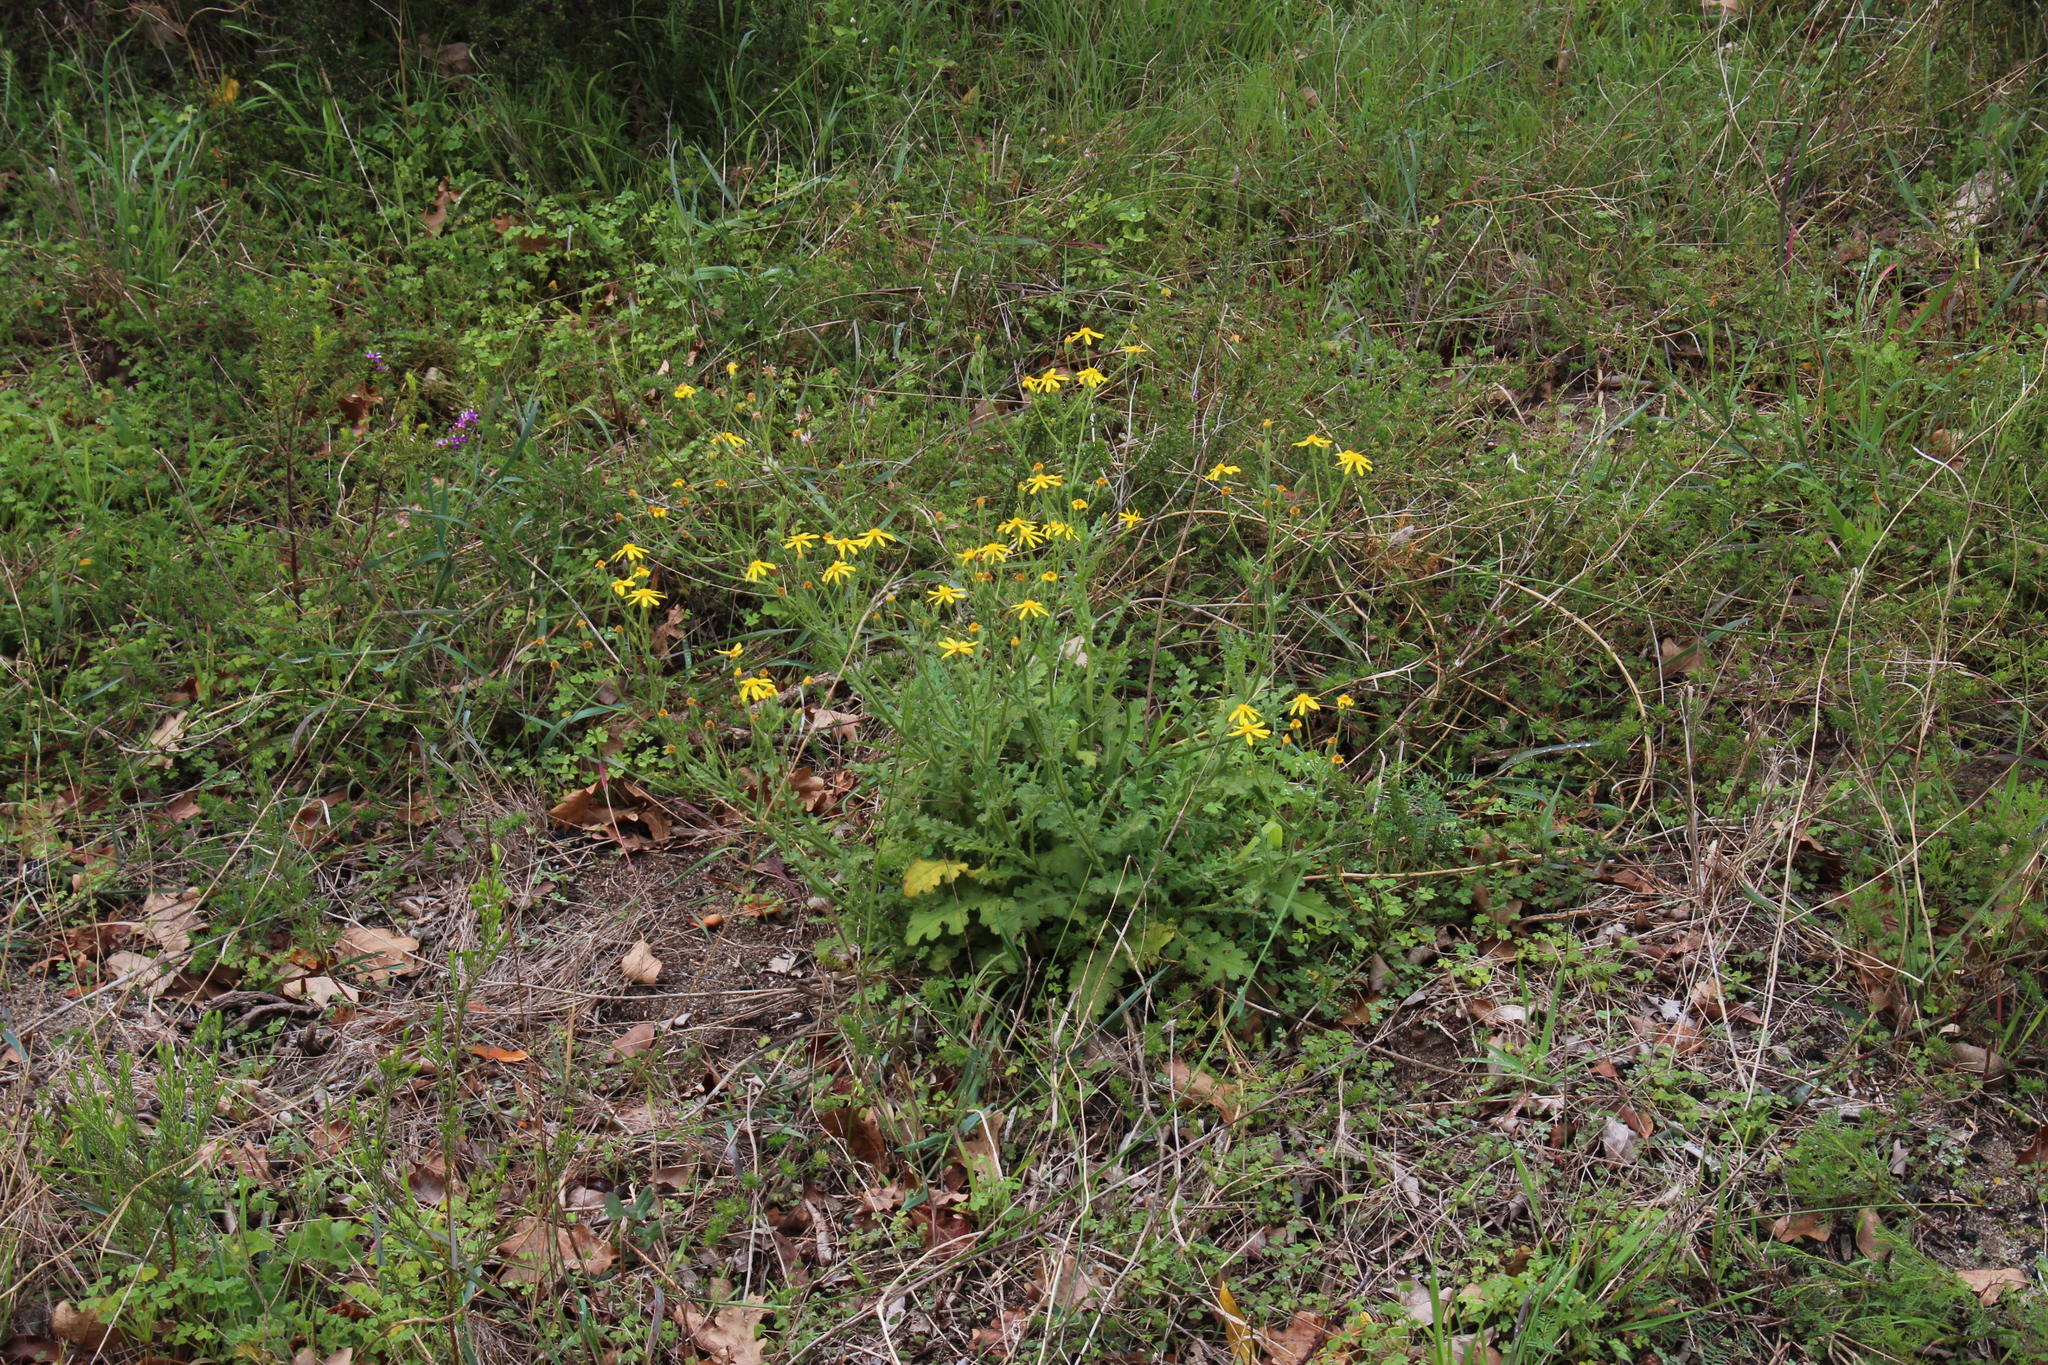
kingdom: Plantae
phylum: Tracheophyta
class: Magnoliopsida
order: Asterales
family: Asteraceae
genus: Senecio
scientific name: Senecio hastatus
